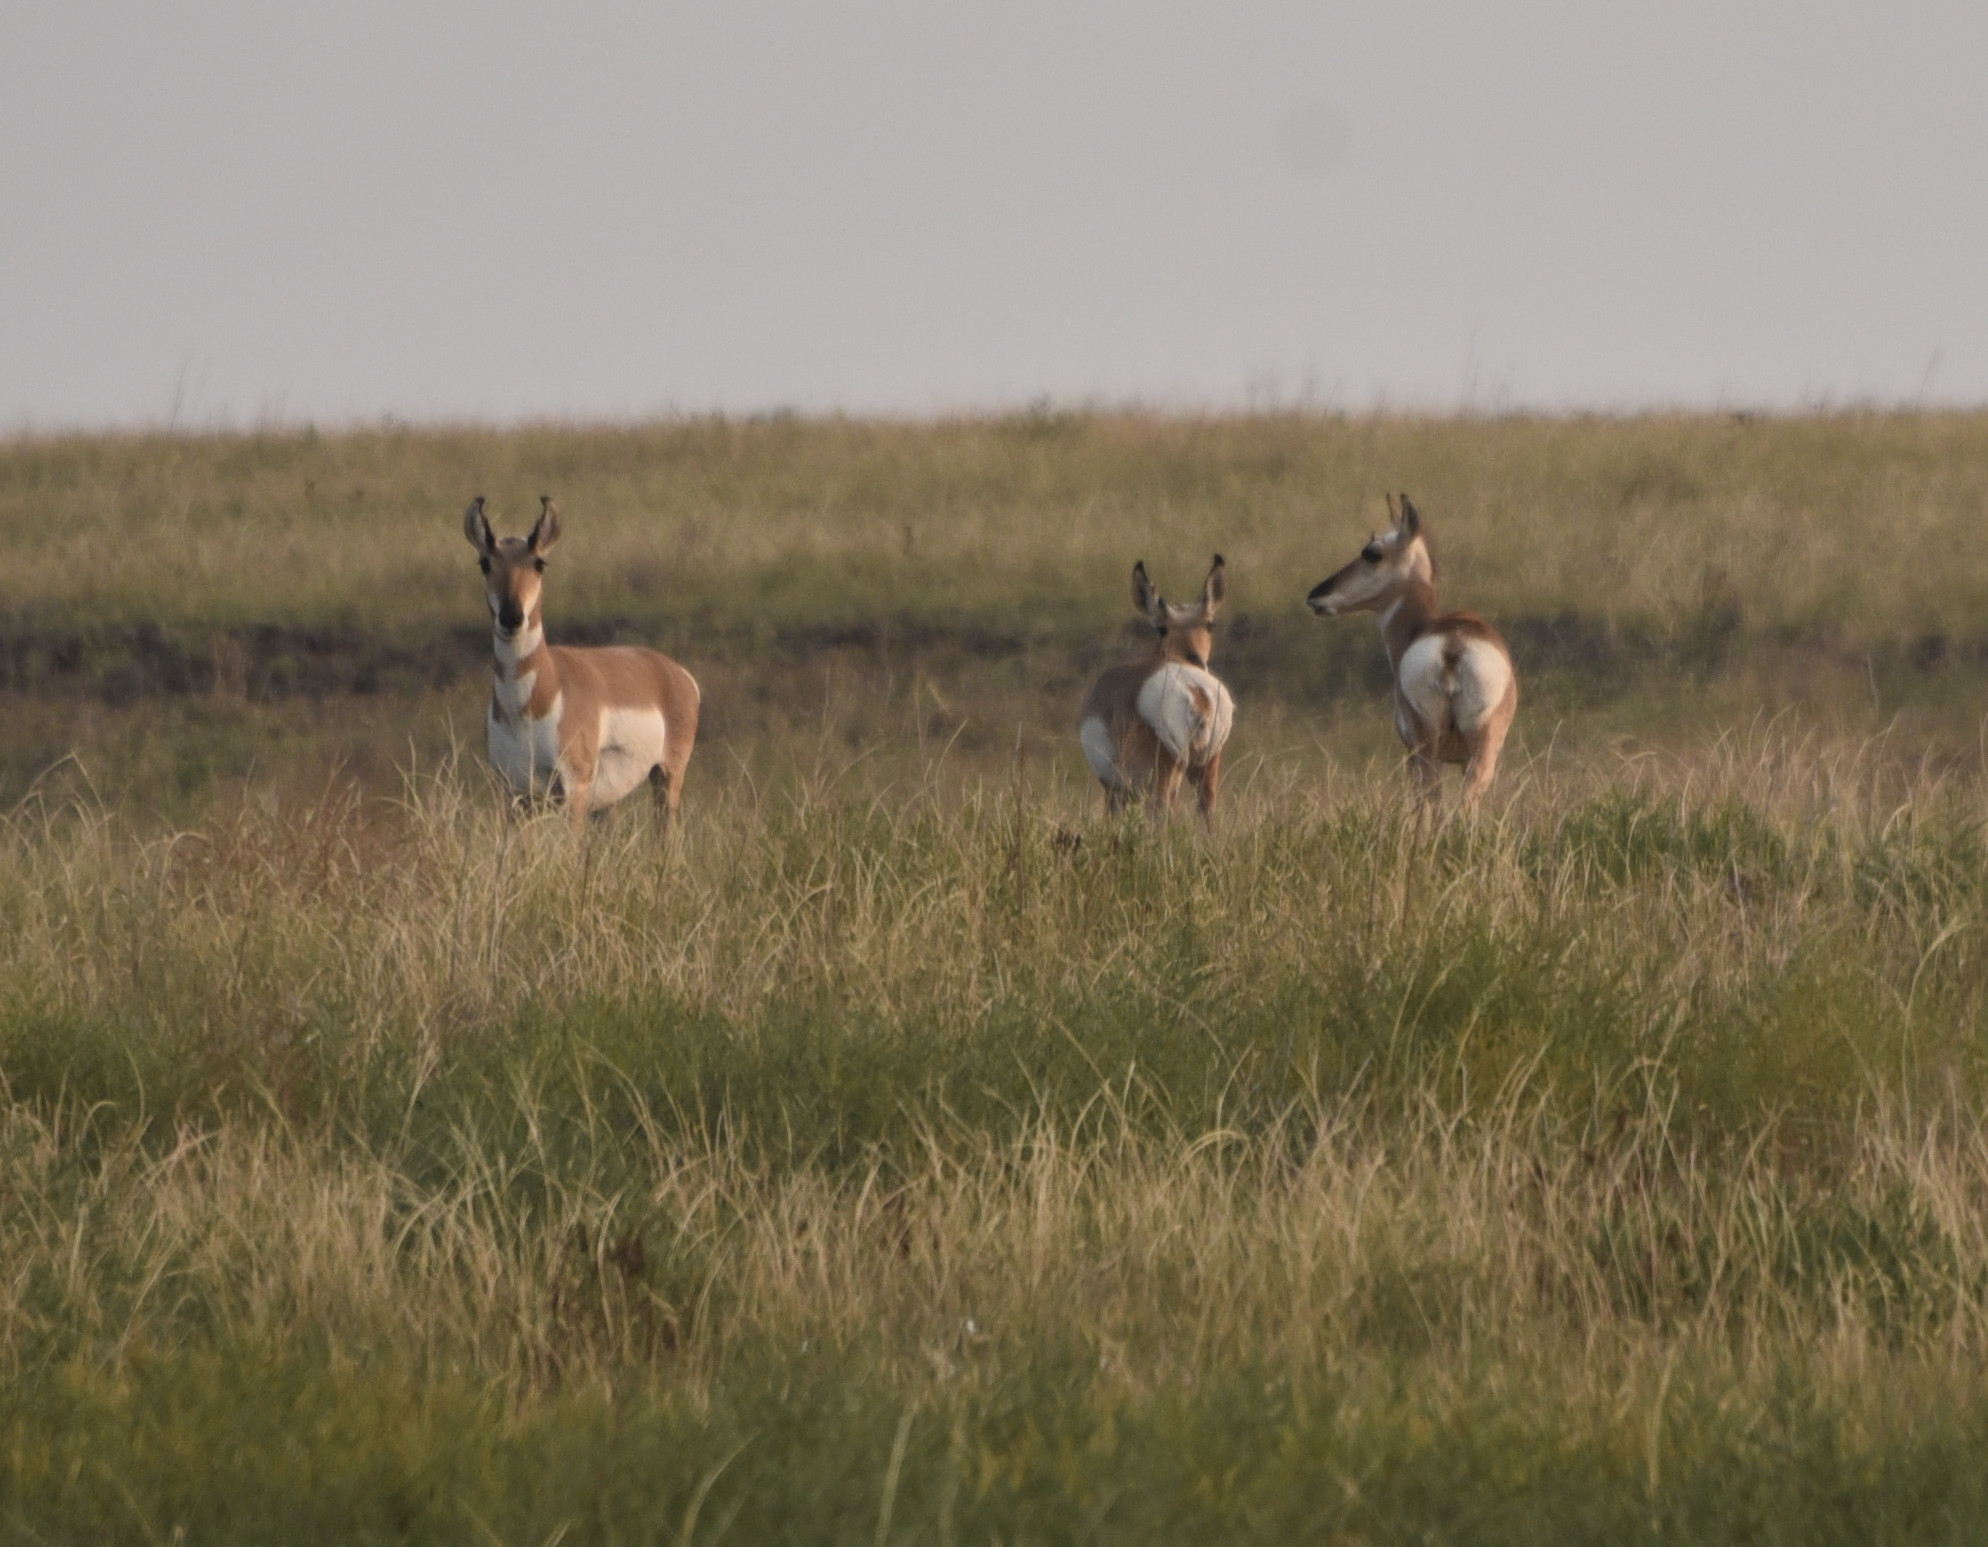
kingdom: Animalia
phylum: Chordata
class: Mammalia
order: Artiodactyla
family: Antilocapridae
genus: Antilocapra
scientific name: Antilocapra americana
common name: Pronghorn
